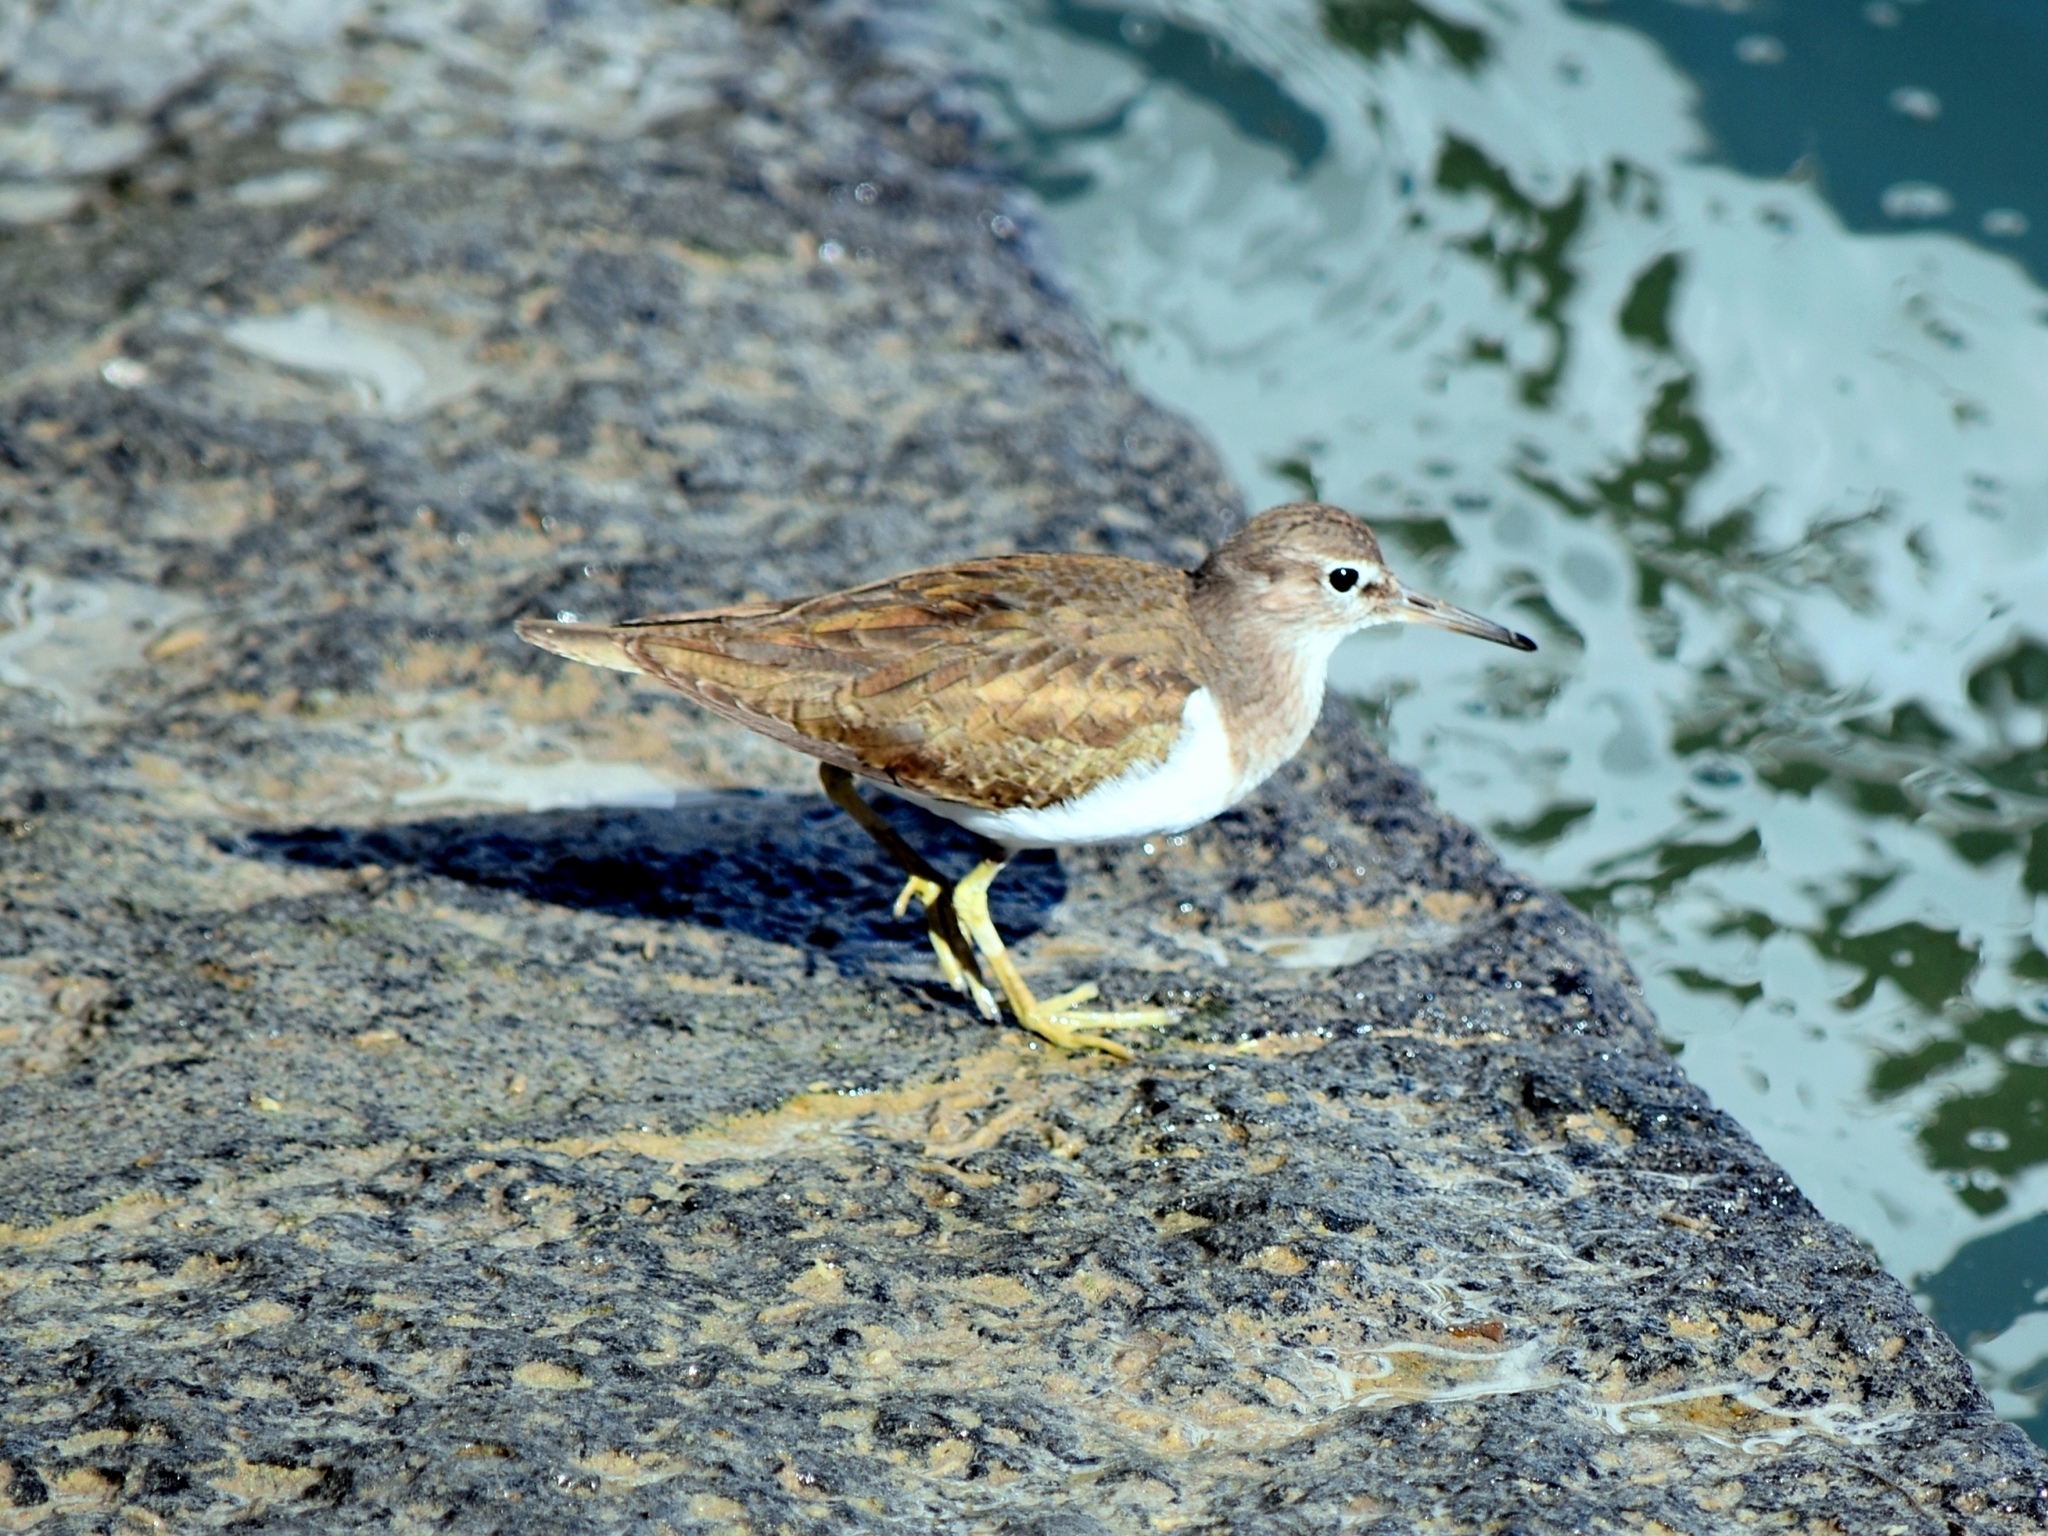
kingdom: Animalia
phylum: Chordata
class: Aves
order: Charadriiformes
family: Scolopacidae
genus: Actitis
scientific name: Actitis hypoleucos
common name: Common sandpiper
